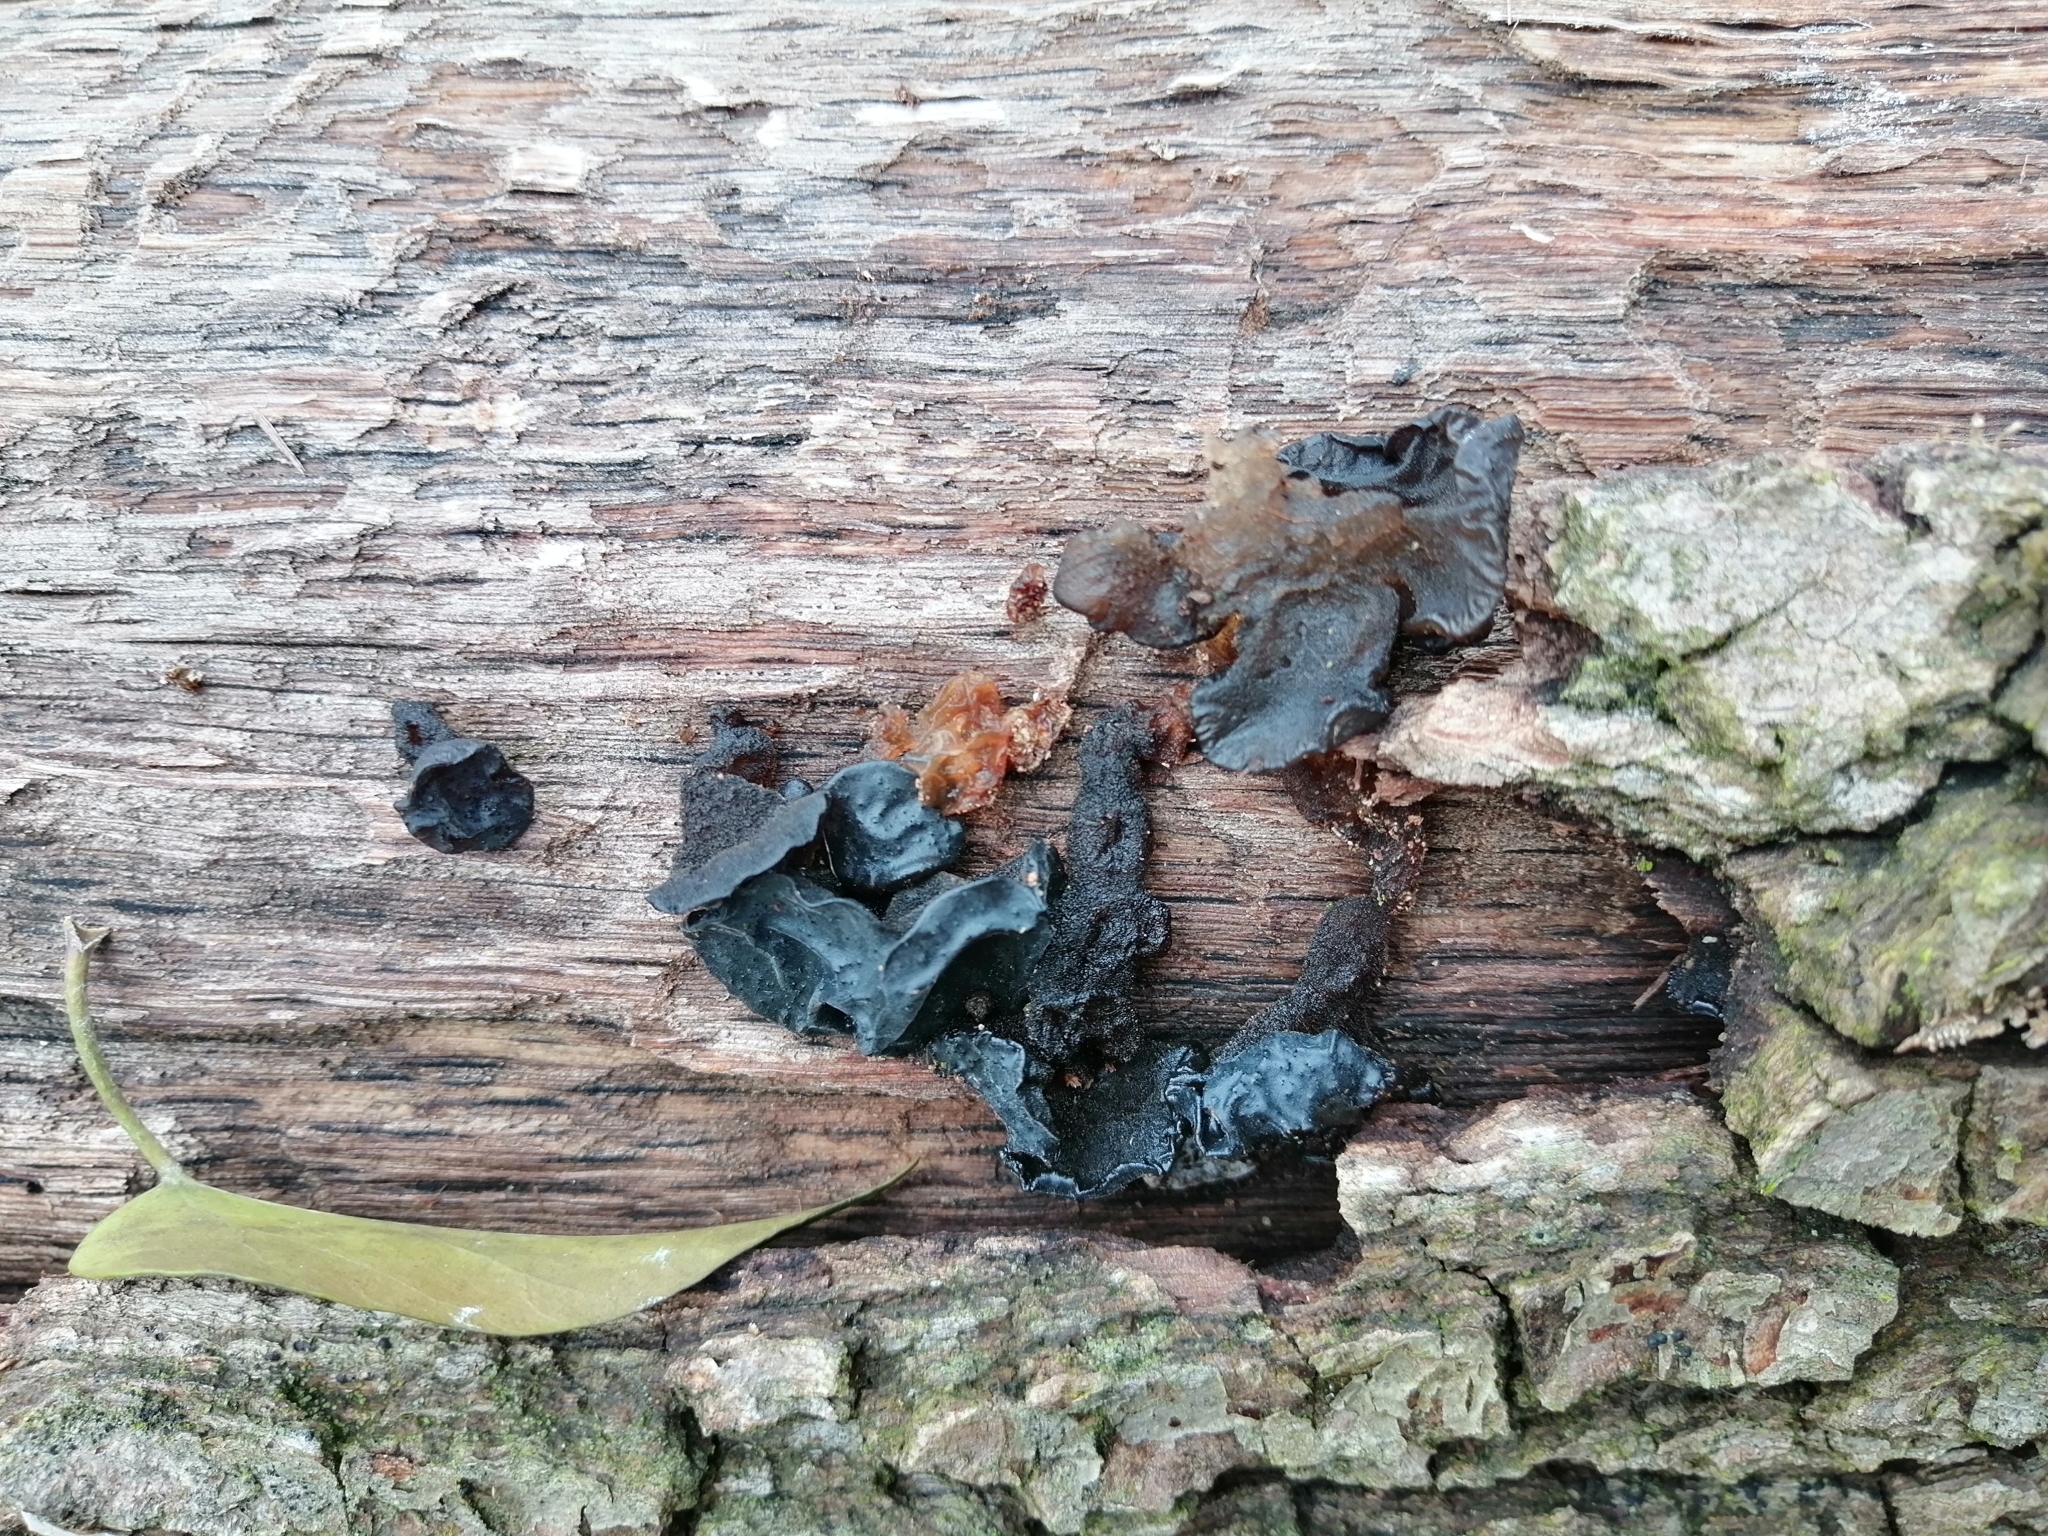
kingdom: Fungi
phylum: Basidiomycota
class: Agaricomycetes
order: Auriculariales
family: Auriculariaceae
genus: Exidia
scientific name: Exidia glandulosa
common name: Witches' butter
